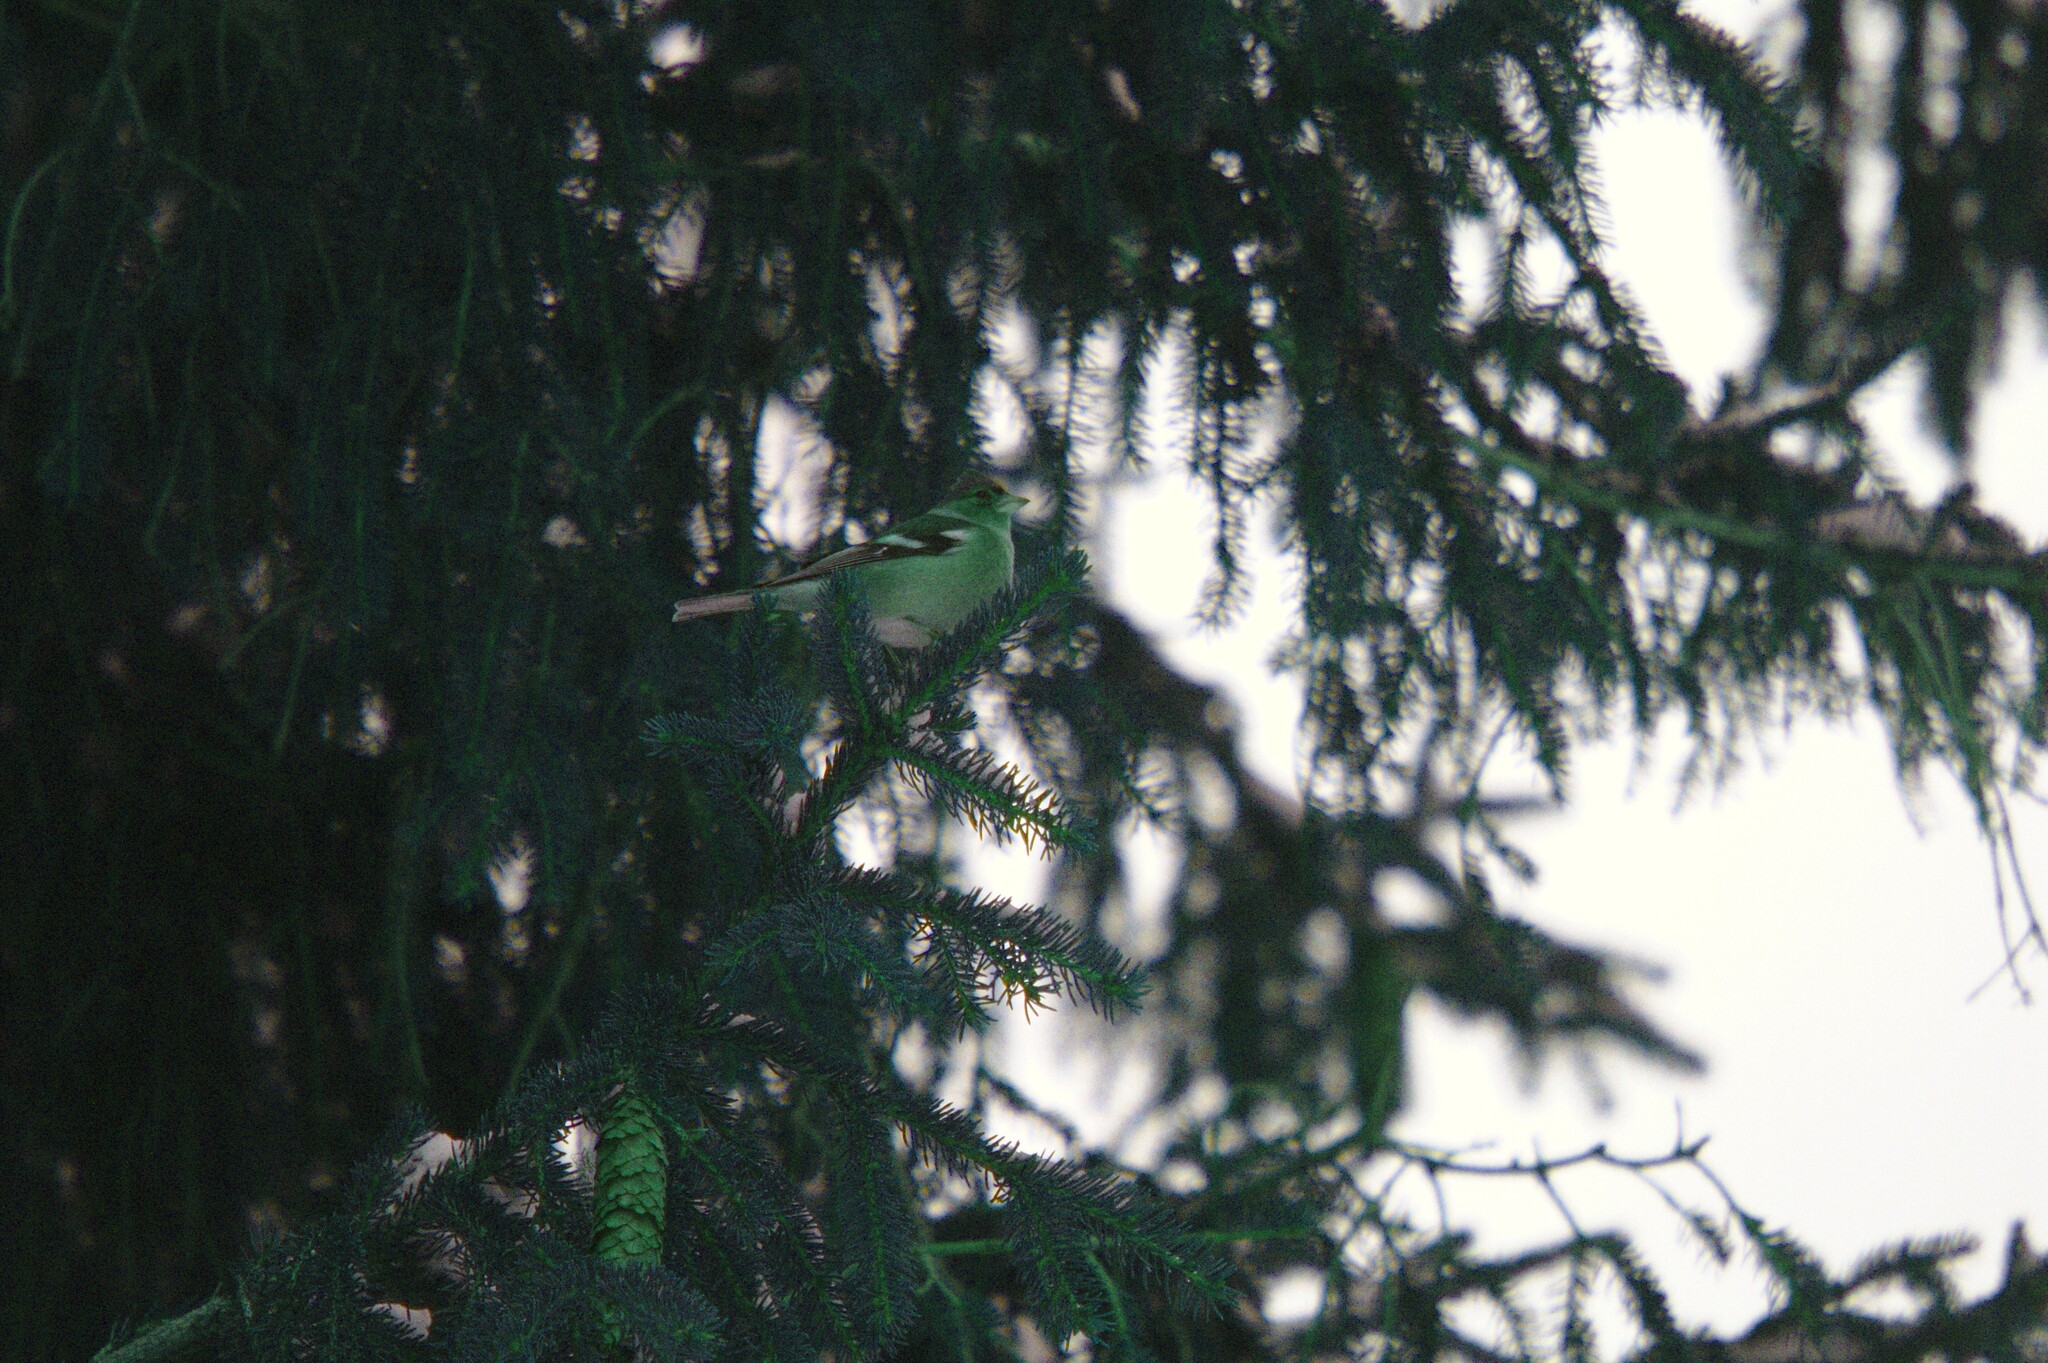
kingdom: Animalia
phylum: Chordata
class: Aves
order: Passeriformes
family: Fringillidae
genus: Fringilla
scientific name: Fringilla coelebs
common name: Common chaffinch
